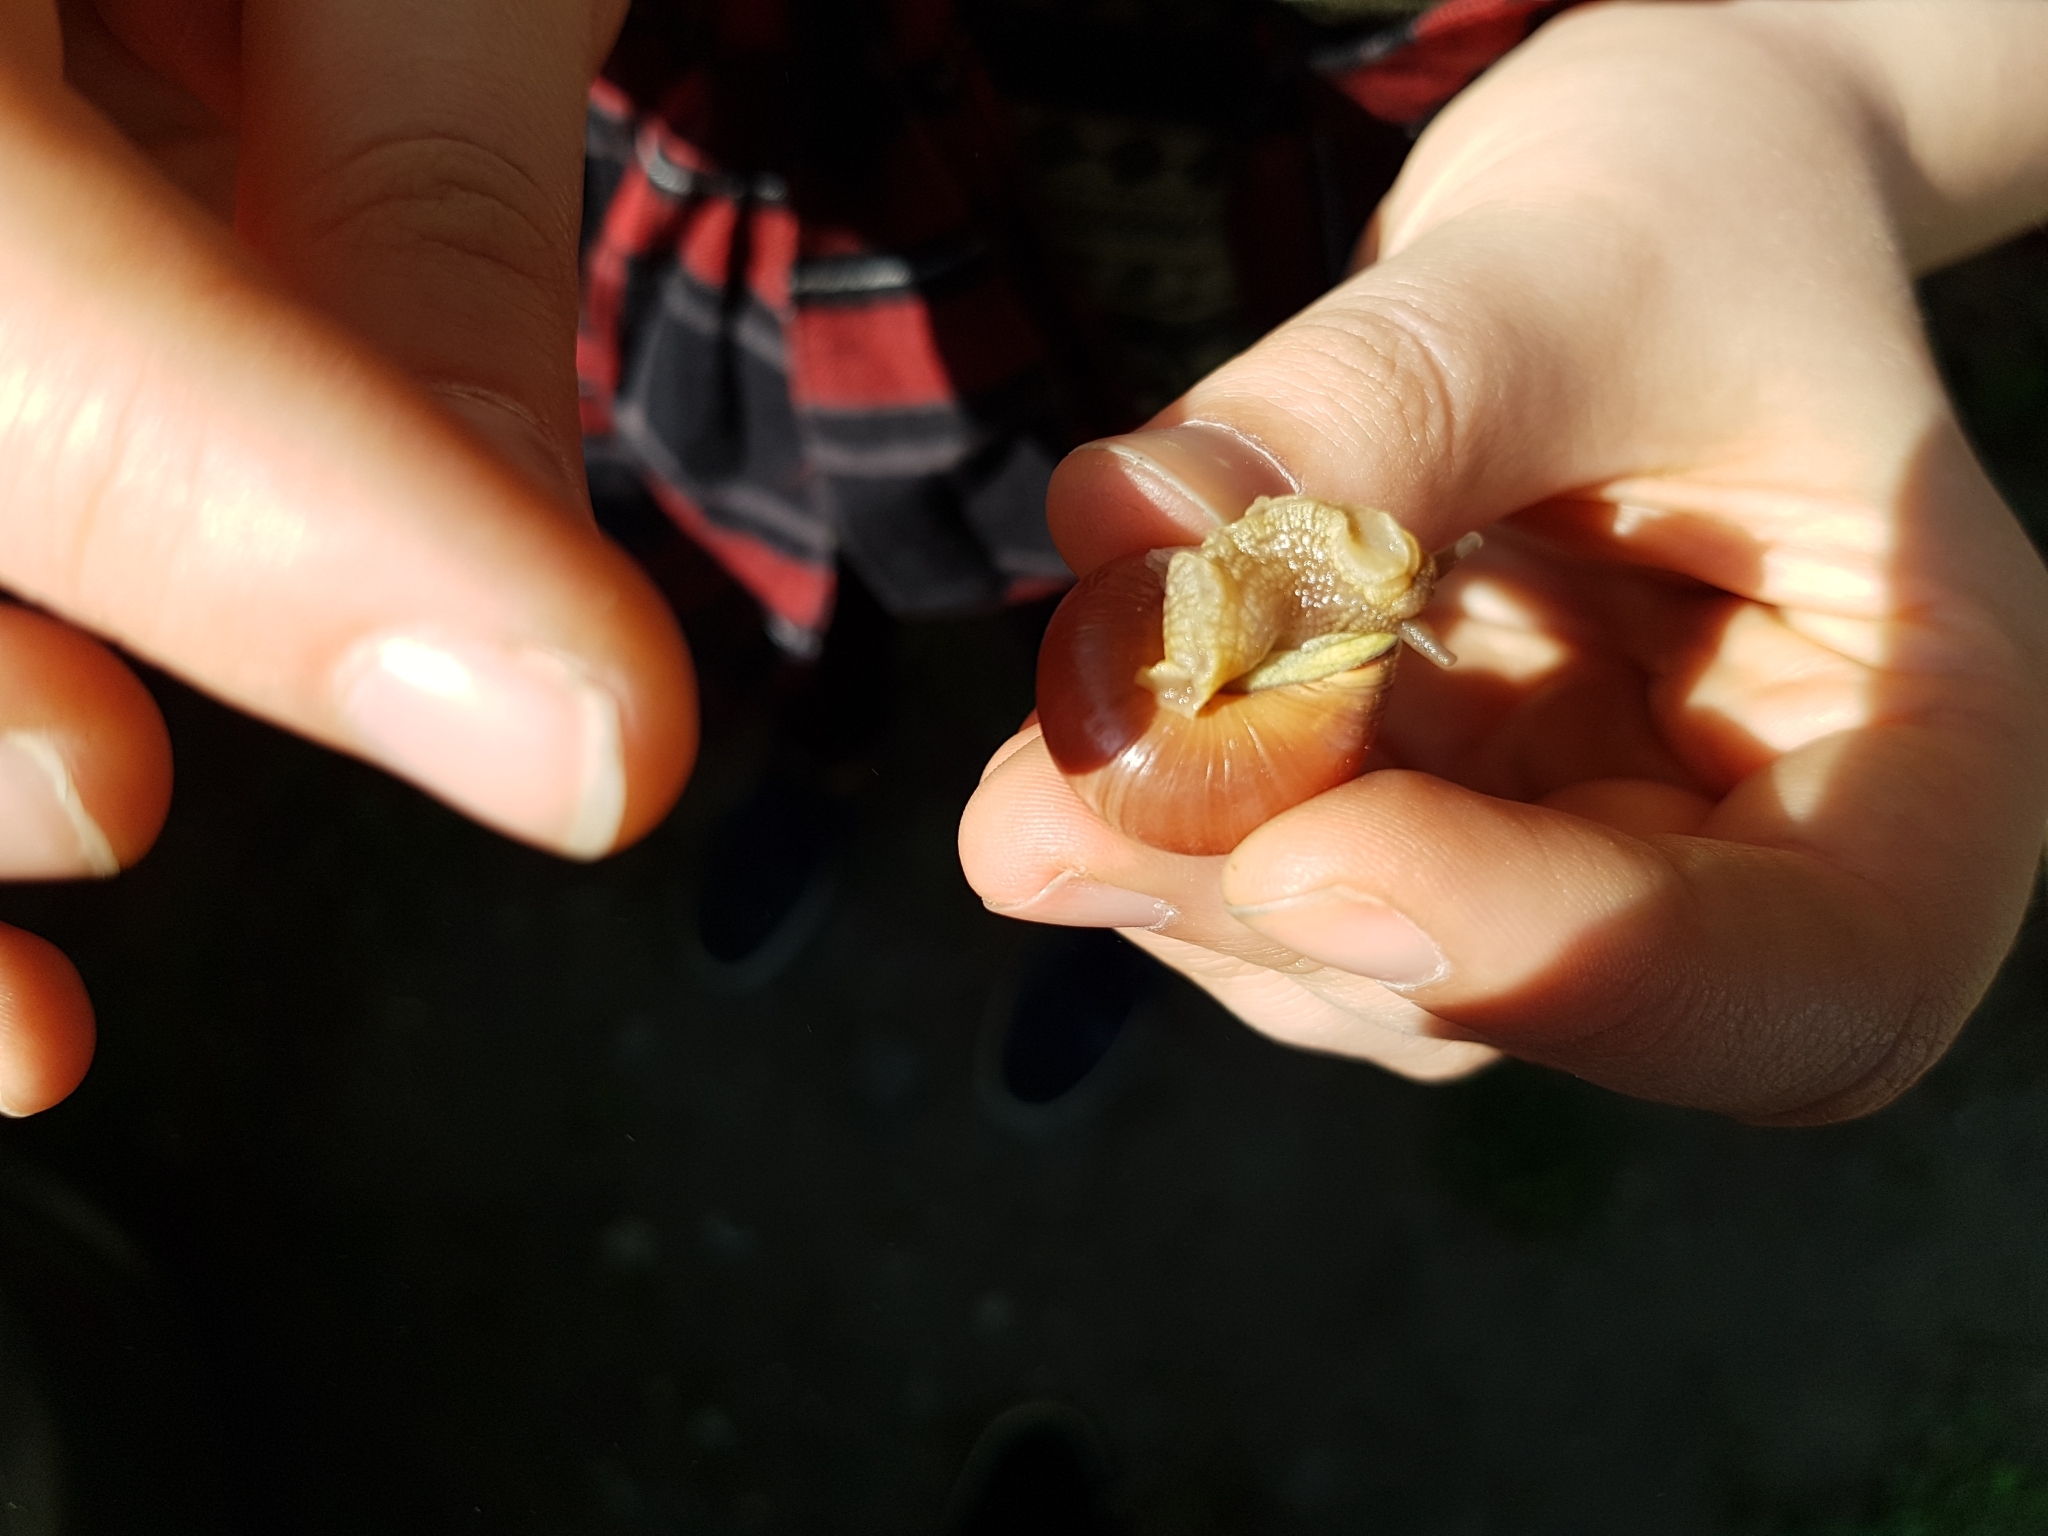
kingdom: Animalia
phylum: Mollusca
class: Gastropoda
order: Stylommatophora
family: Helicidae
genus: Cepaea
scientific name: Cepaea nemoralis
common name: Grovesnail
